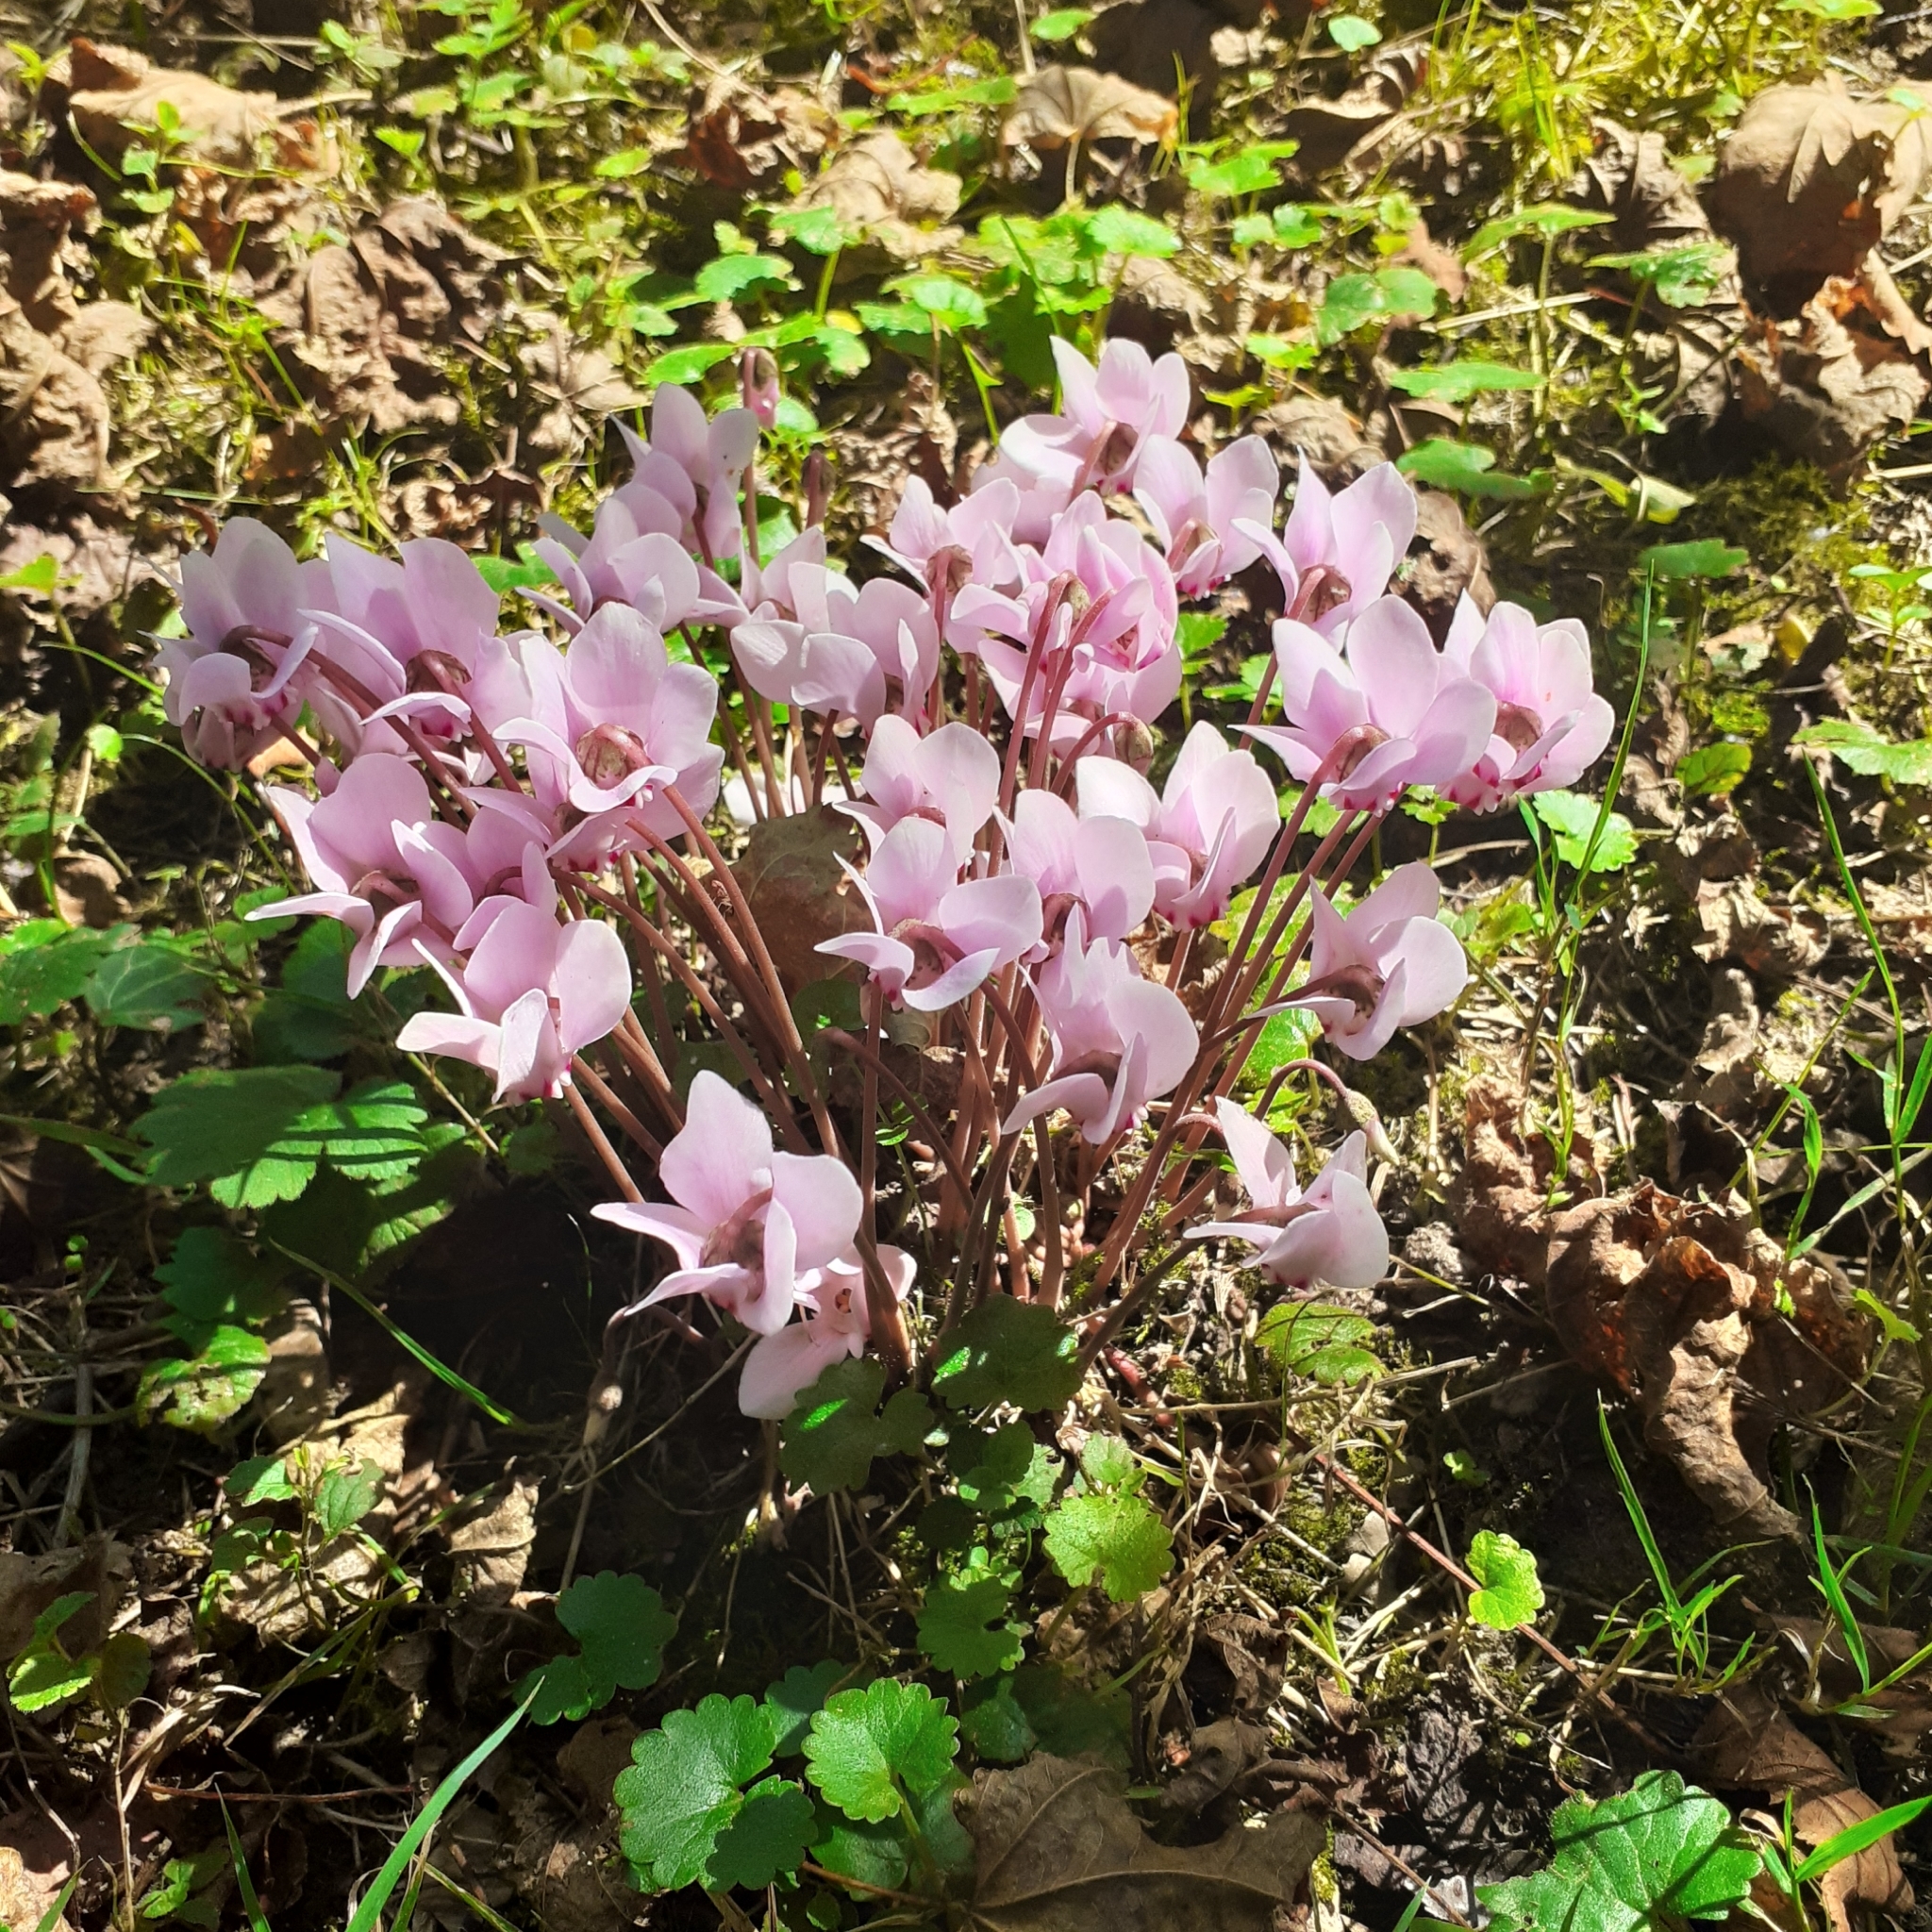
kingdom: Plantae
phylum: Tracheophyta
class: Magnoliopsida
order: Ericales
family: Primulaceae
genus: Cyclamen
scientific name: Cyclamen hederifolium
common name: Sowbread
